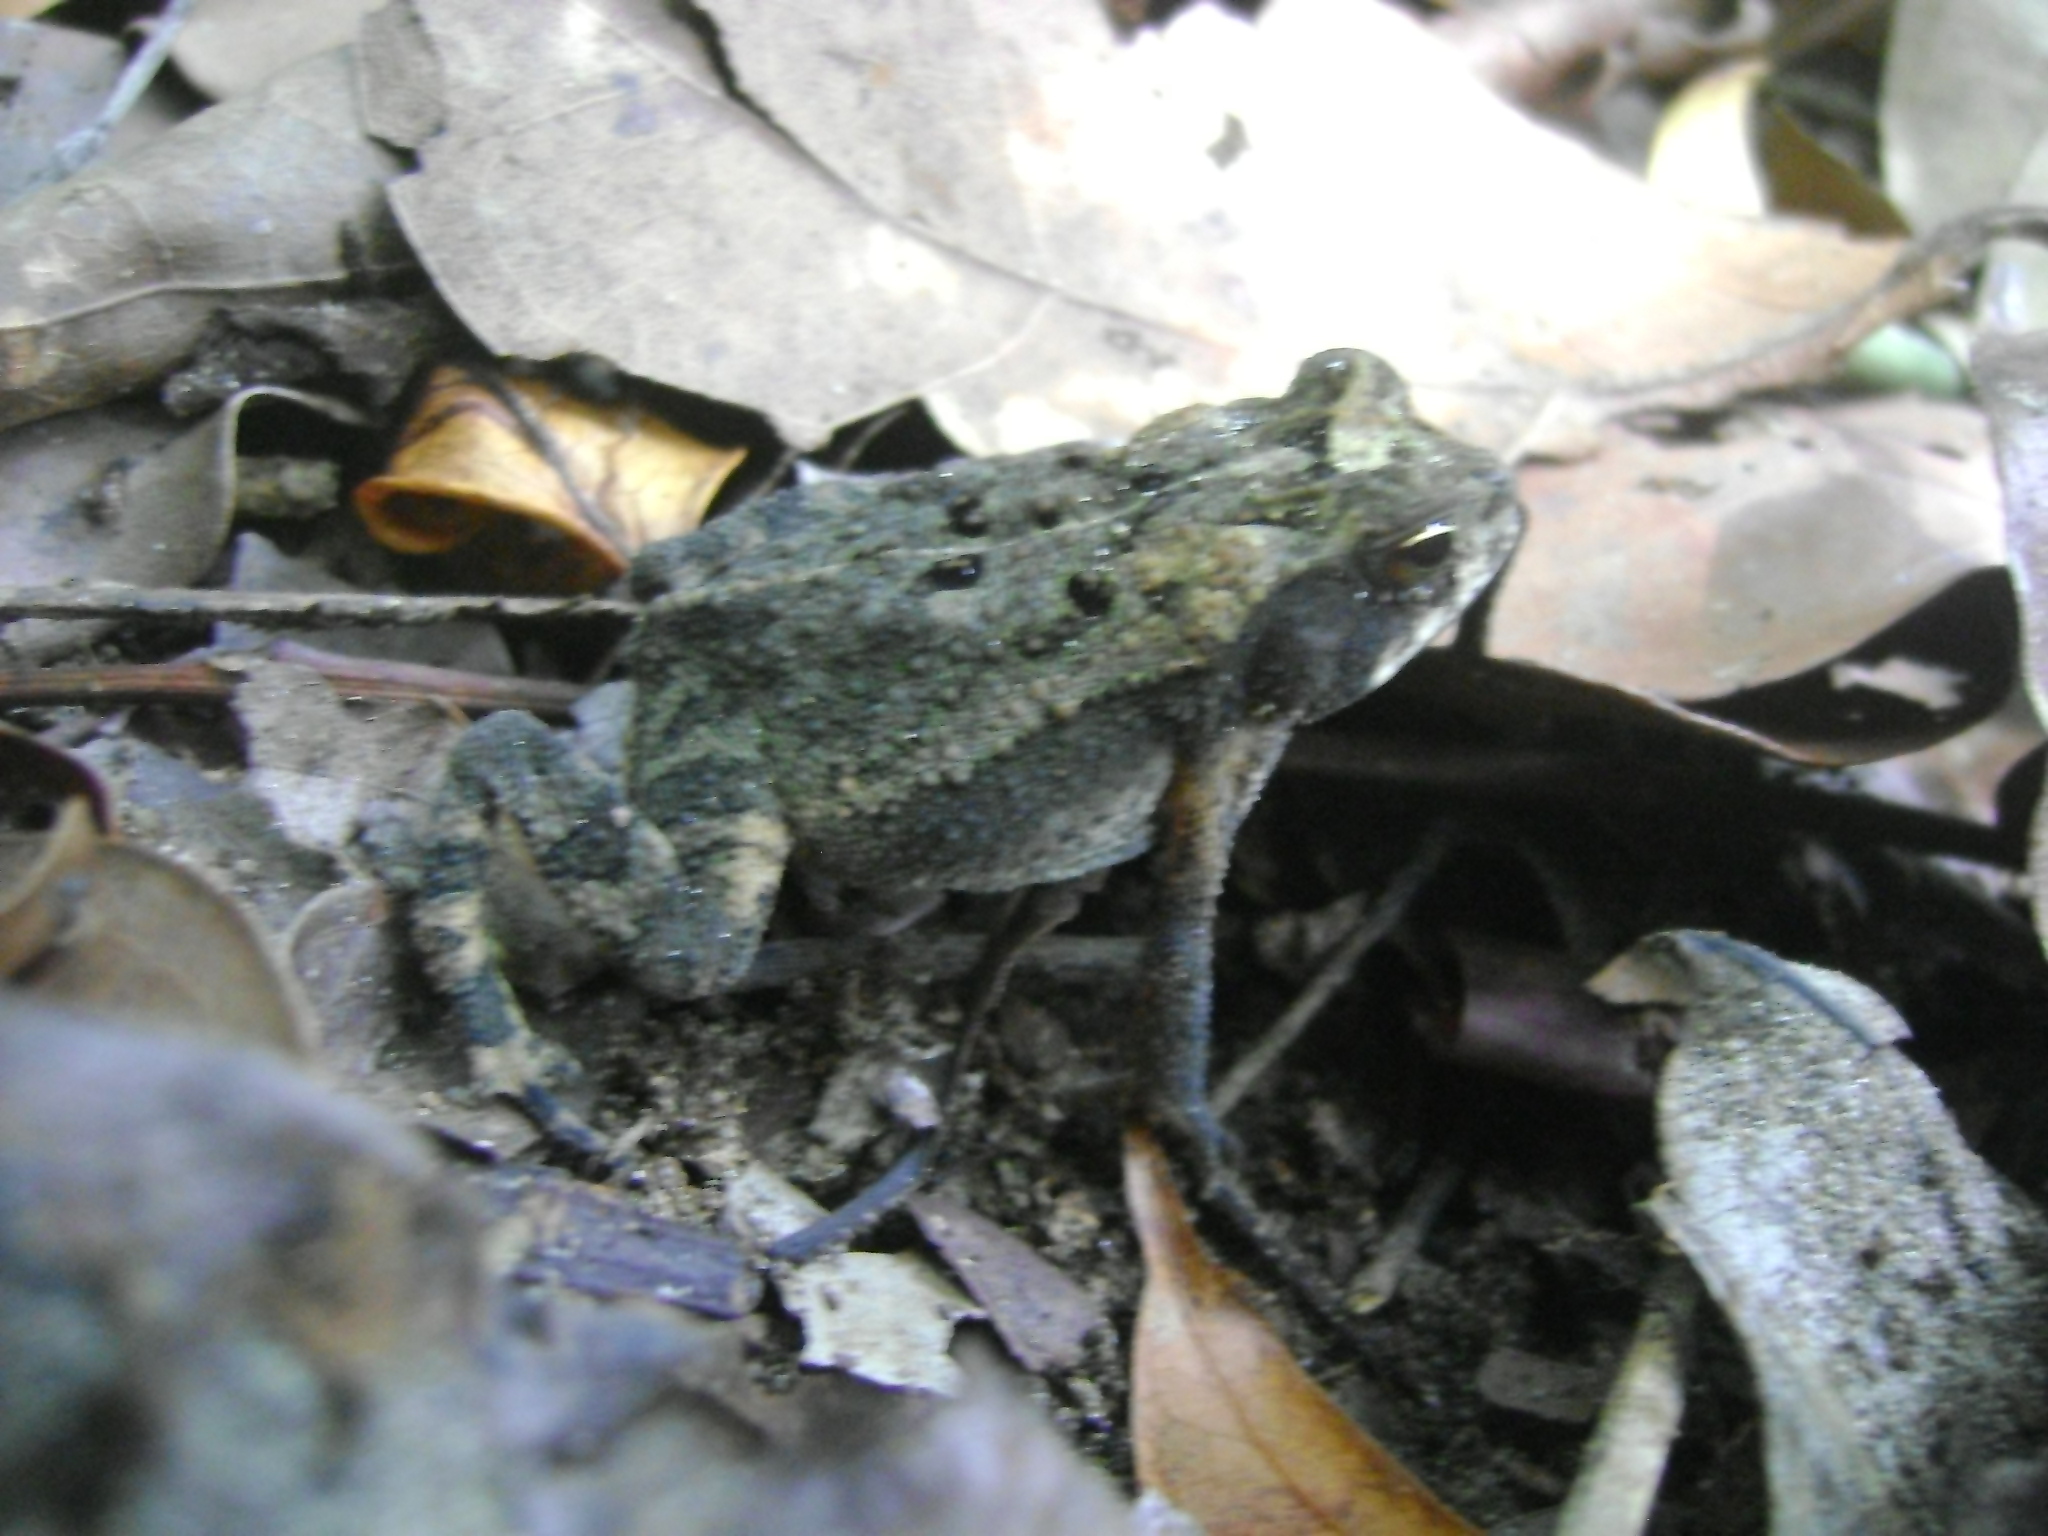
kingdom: Animalia
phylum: Chordata
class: Amphibia
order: Anura
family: Bufonidae
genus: Incilius
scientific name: Incilius valliceps
